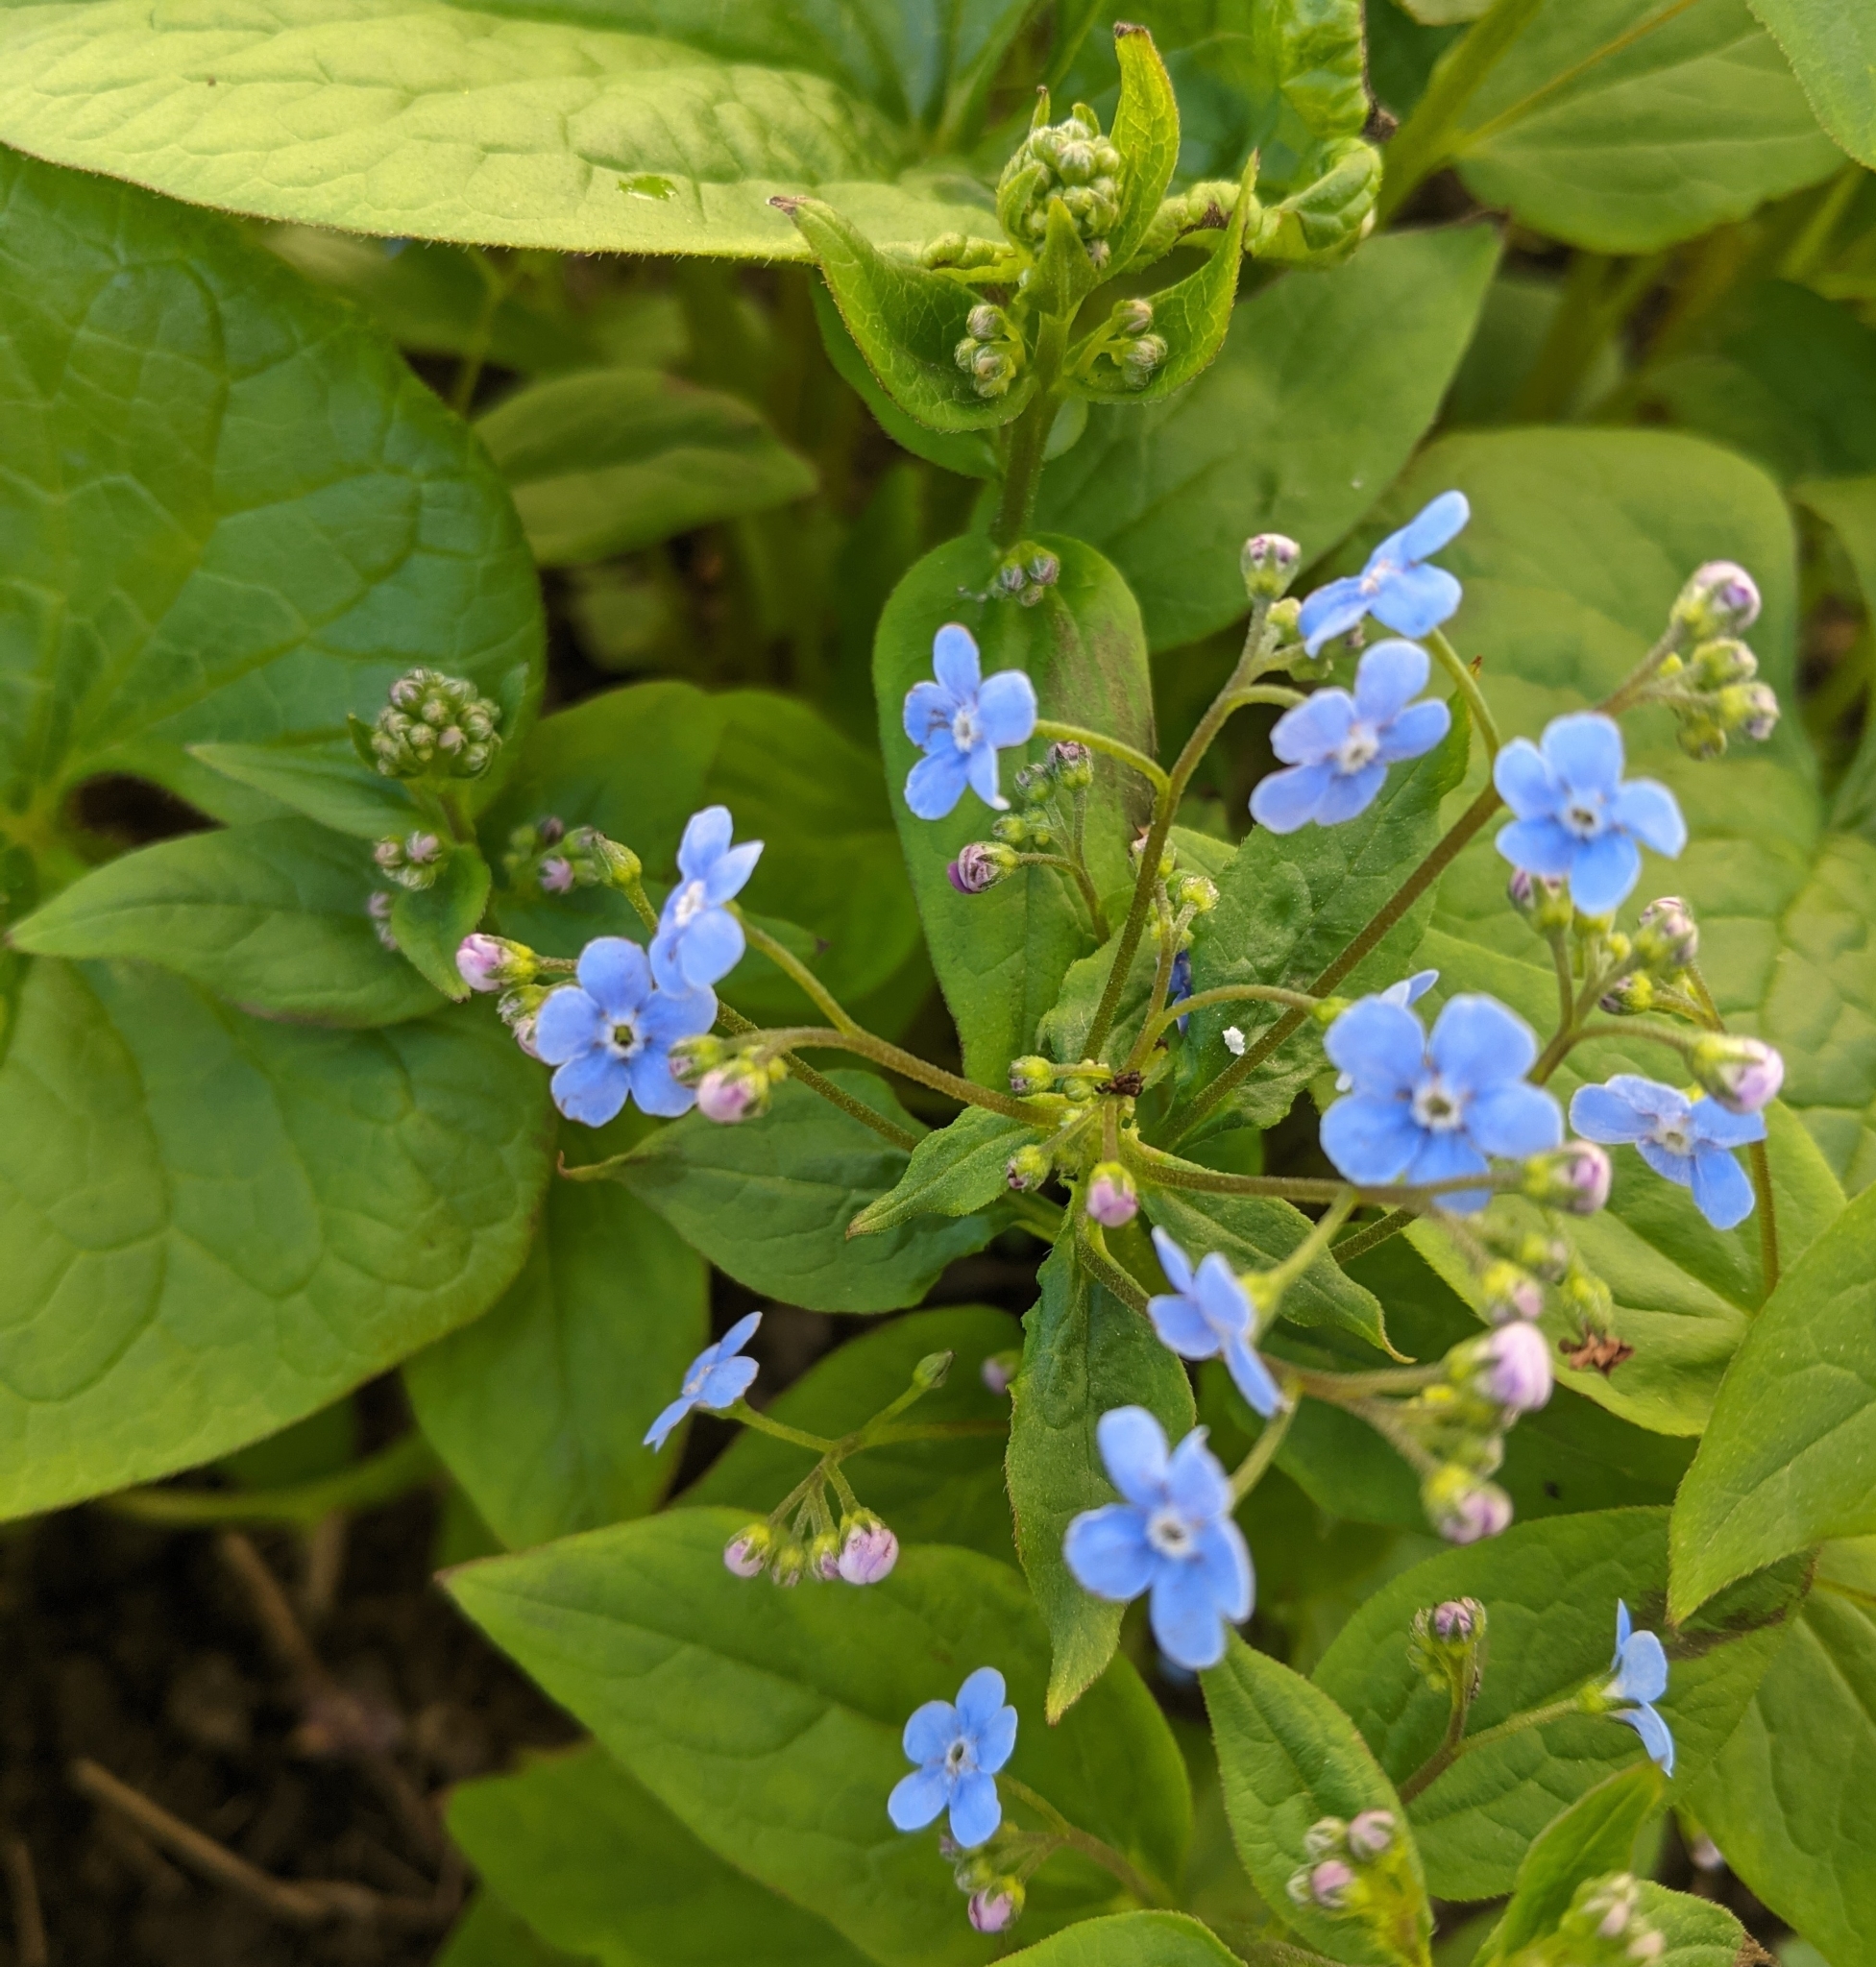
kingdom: Plantae
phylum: Tracheophyta
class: Magnoliopsida
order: Boraginales
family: Boraginaceae
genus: Brunnera
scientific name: Brunnera sibirica
